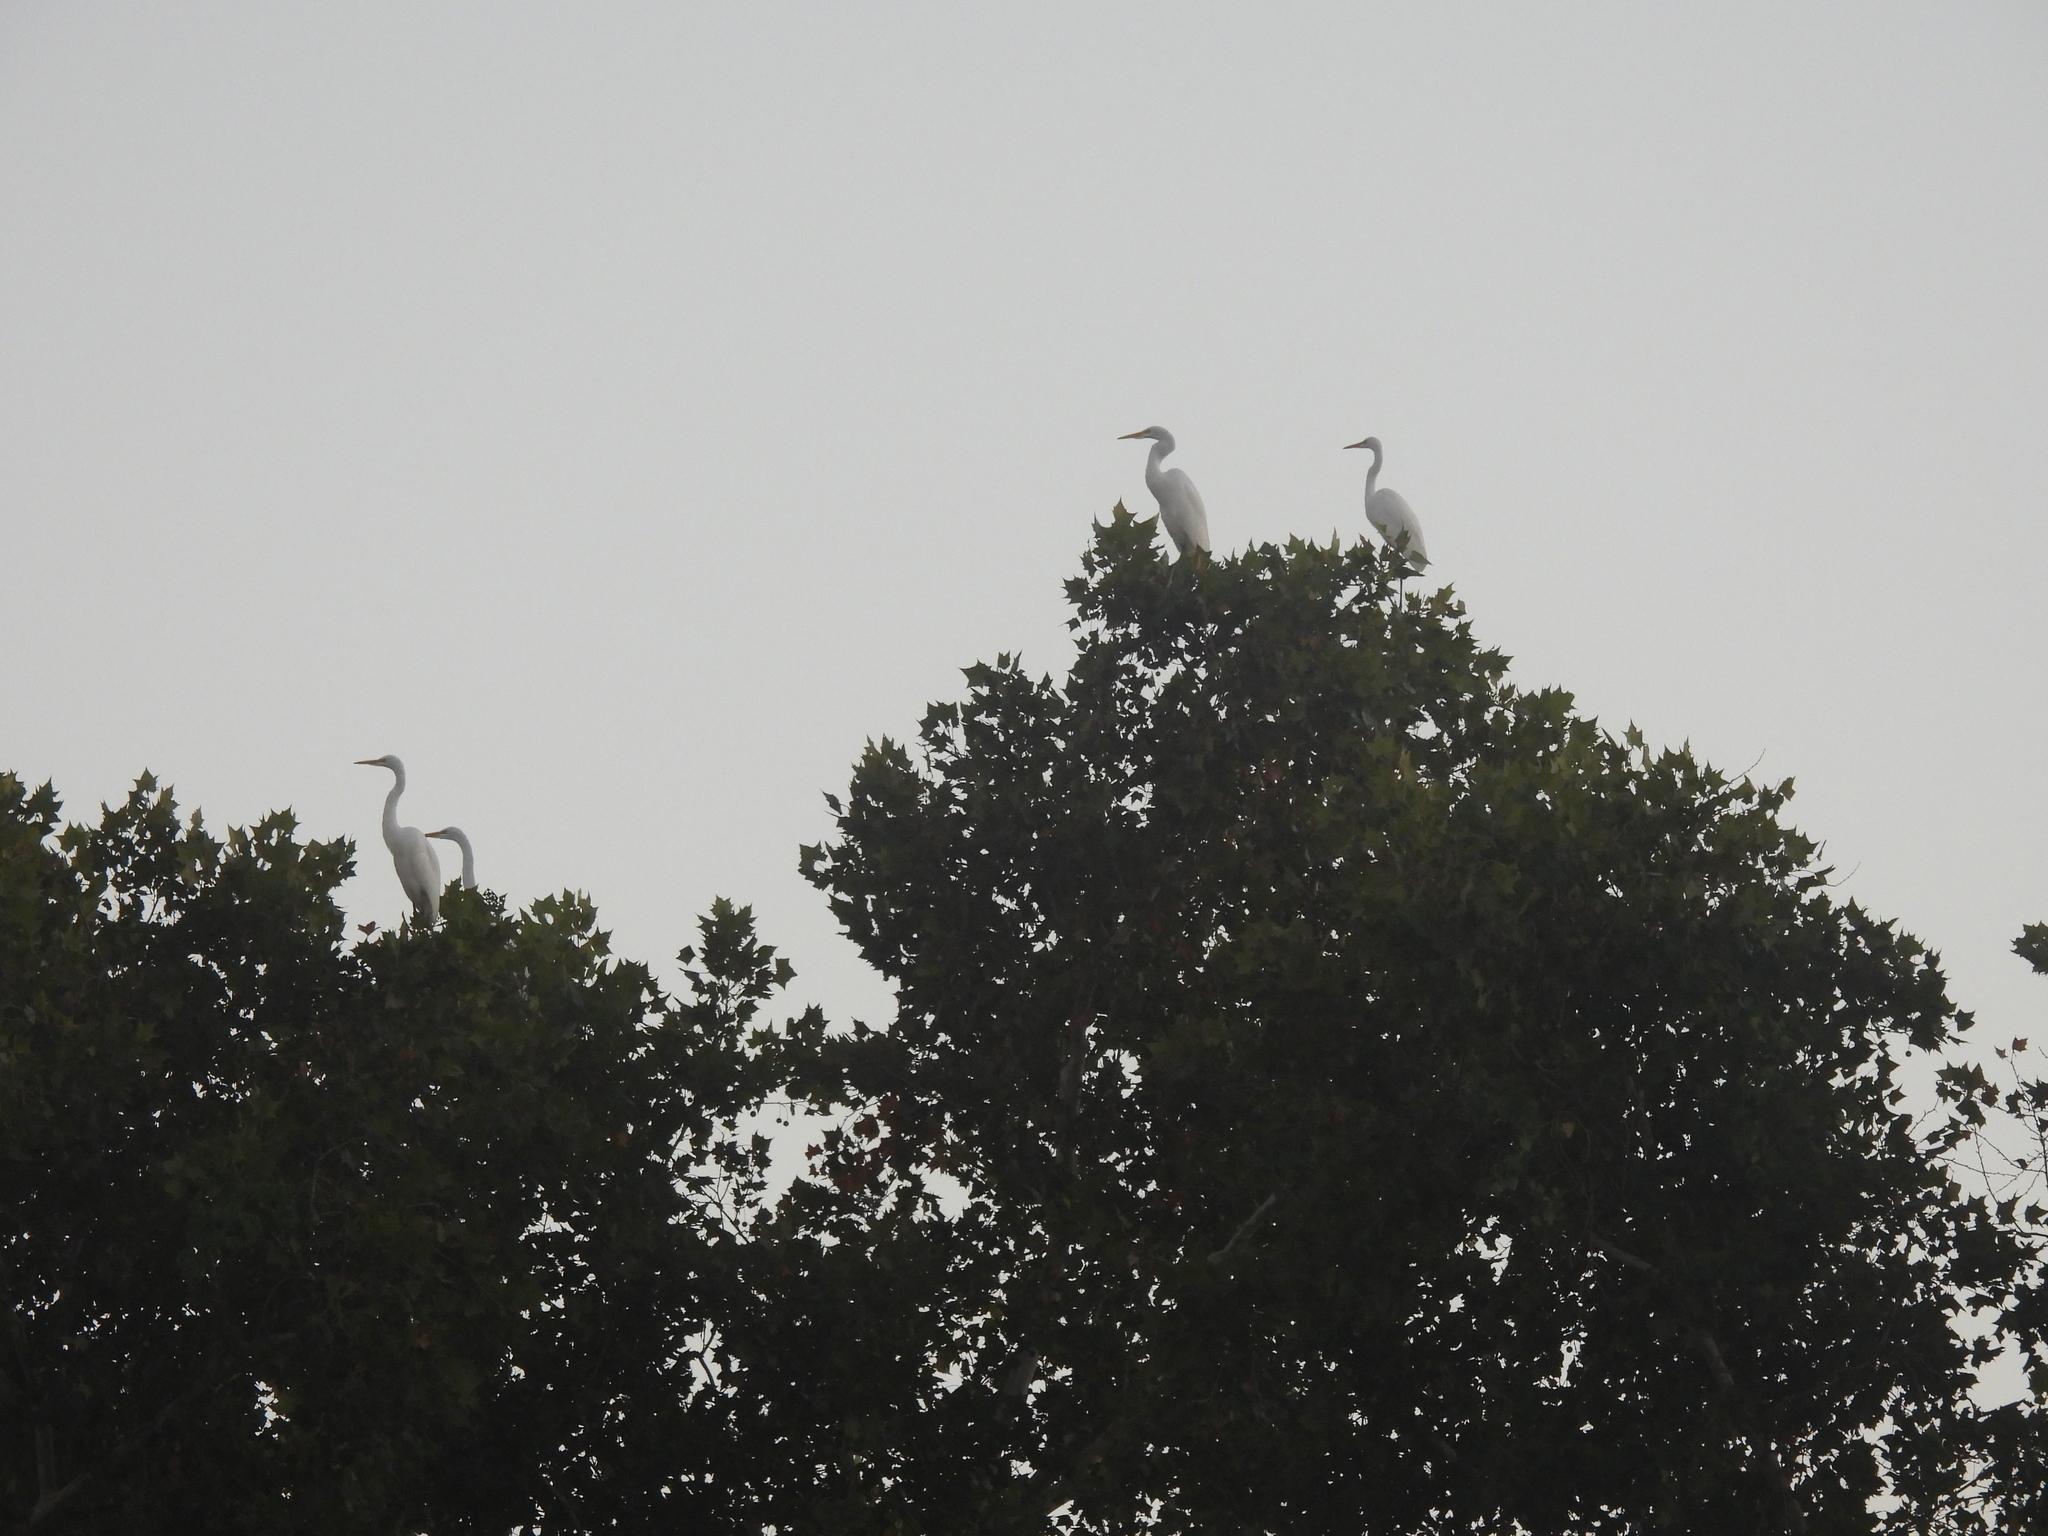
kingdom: Animalia
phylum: Chordata
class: Aves
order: Pelecaniformes
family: Ardeidae
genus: Ardea
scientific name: Ardea alba
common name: Great egret
